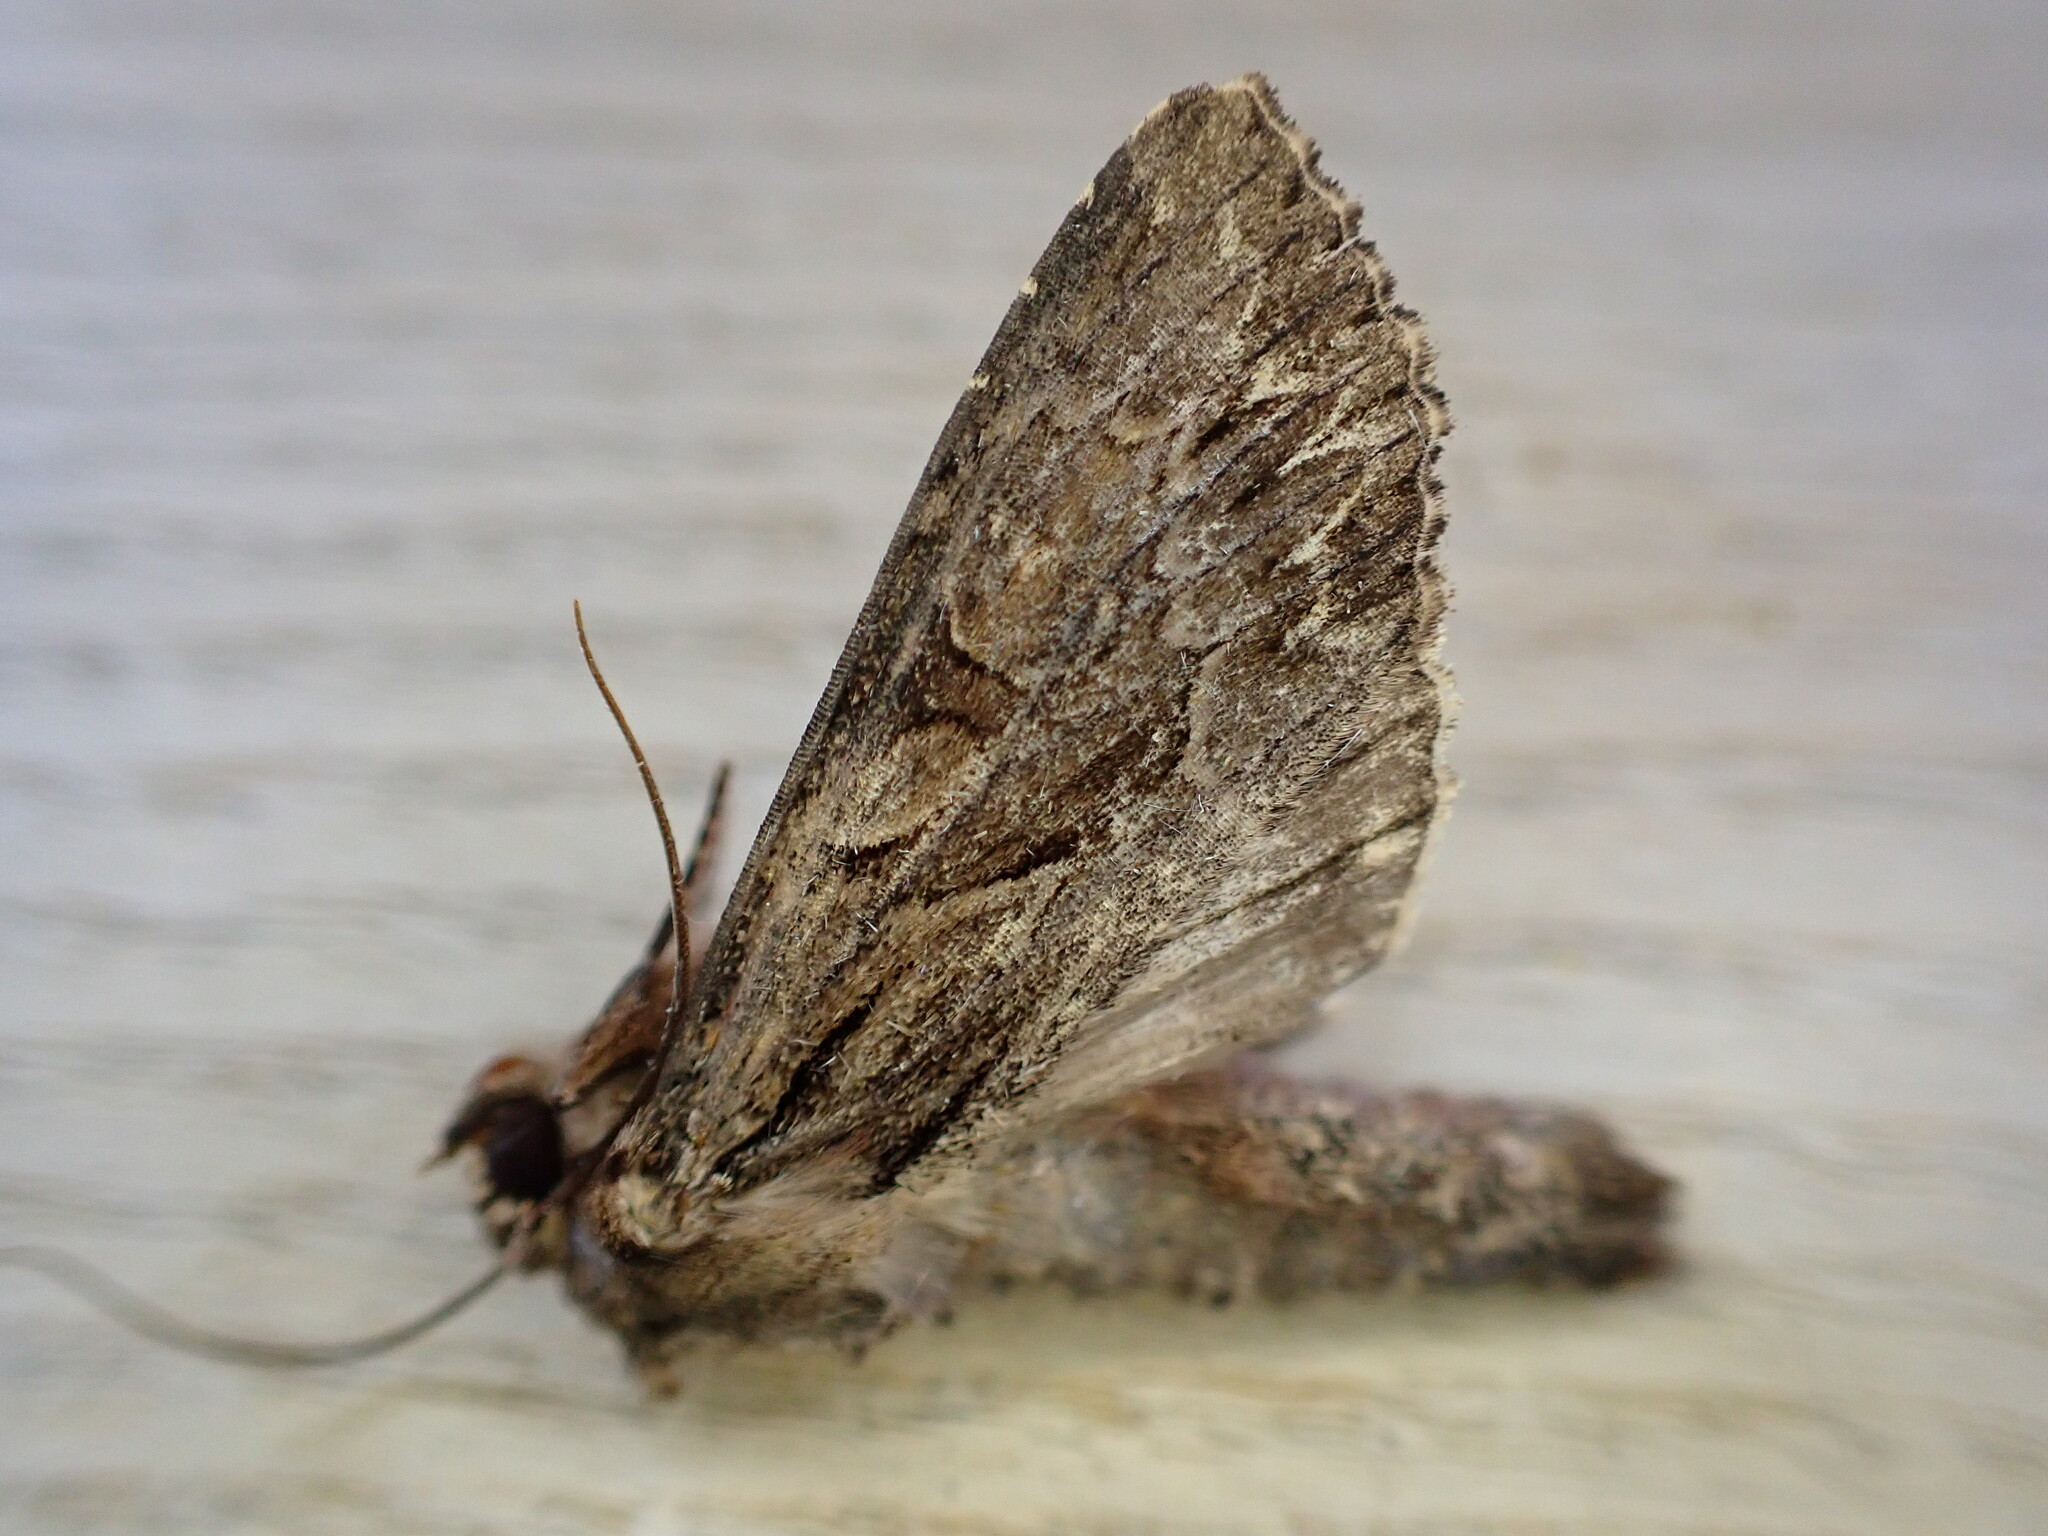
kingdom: Animalia
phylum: Arthropoda
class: Insecta
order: Lepidoptera
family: Noctuidae
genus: Apamea
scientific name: Apamea monoglypha
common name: Dark arches
